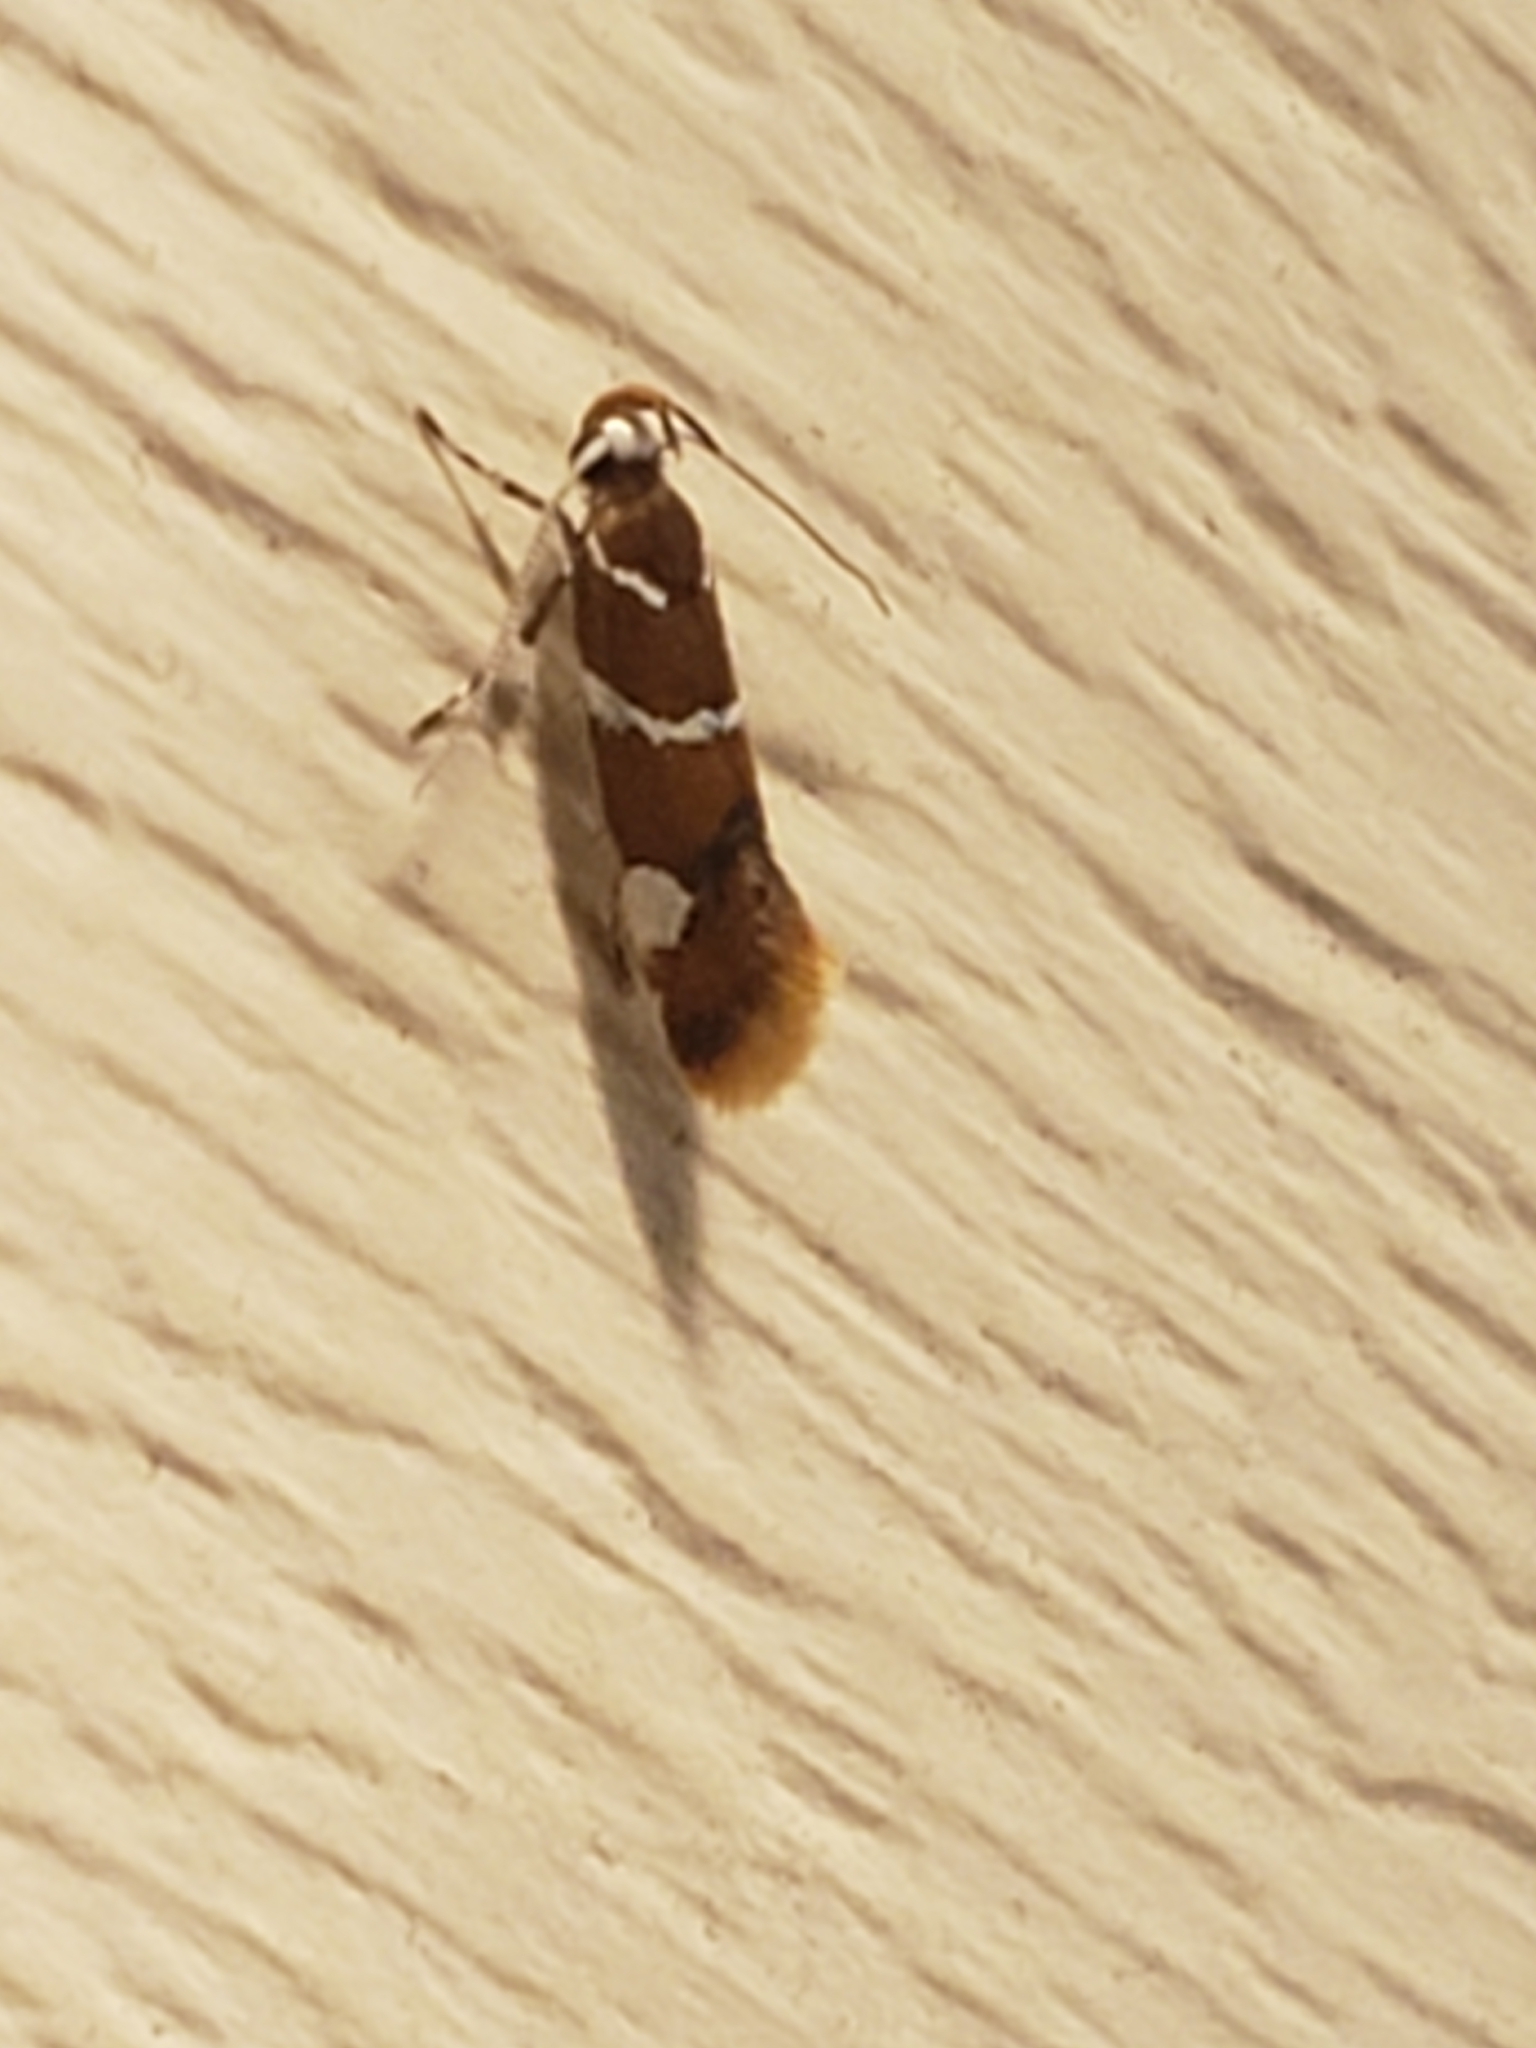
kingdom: Animalia
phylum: Arthropoda
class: Insecta
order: Lepidoptera
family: Oecophoridae
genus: Promalactis
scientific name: Promalactis suzukiella
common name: Moth
